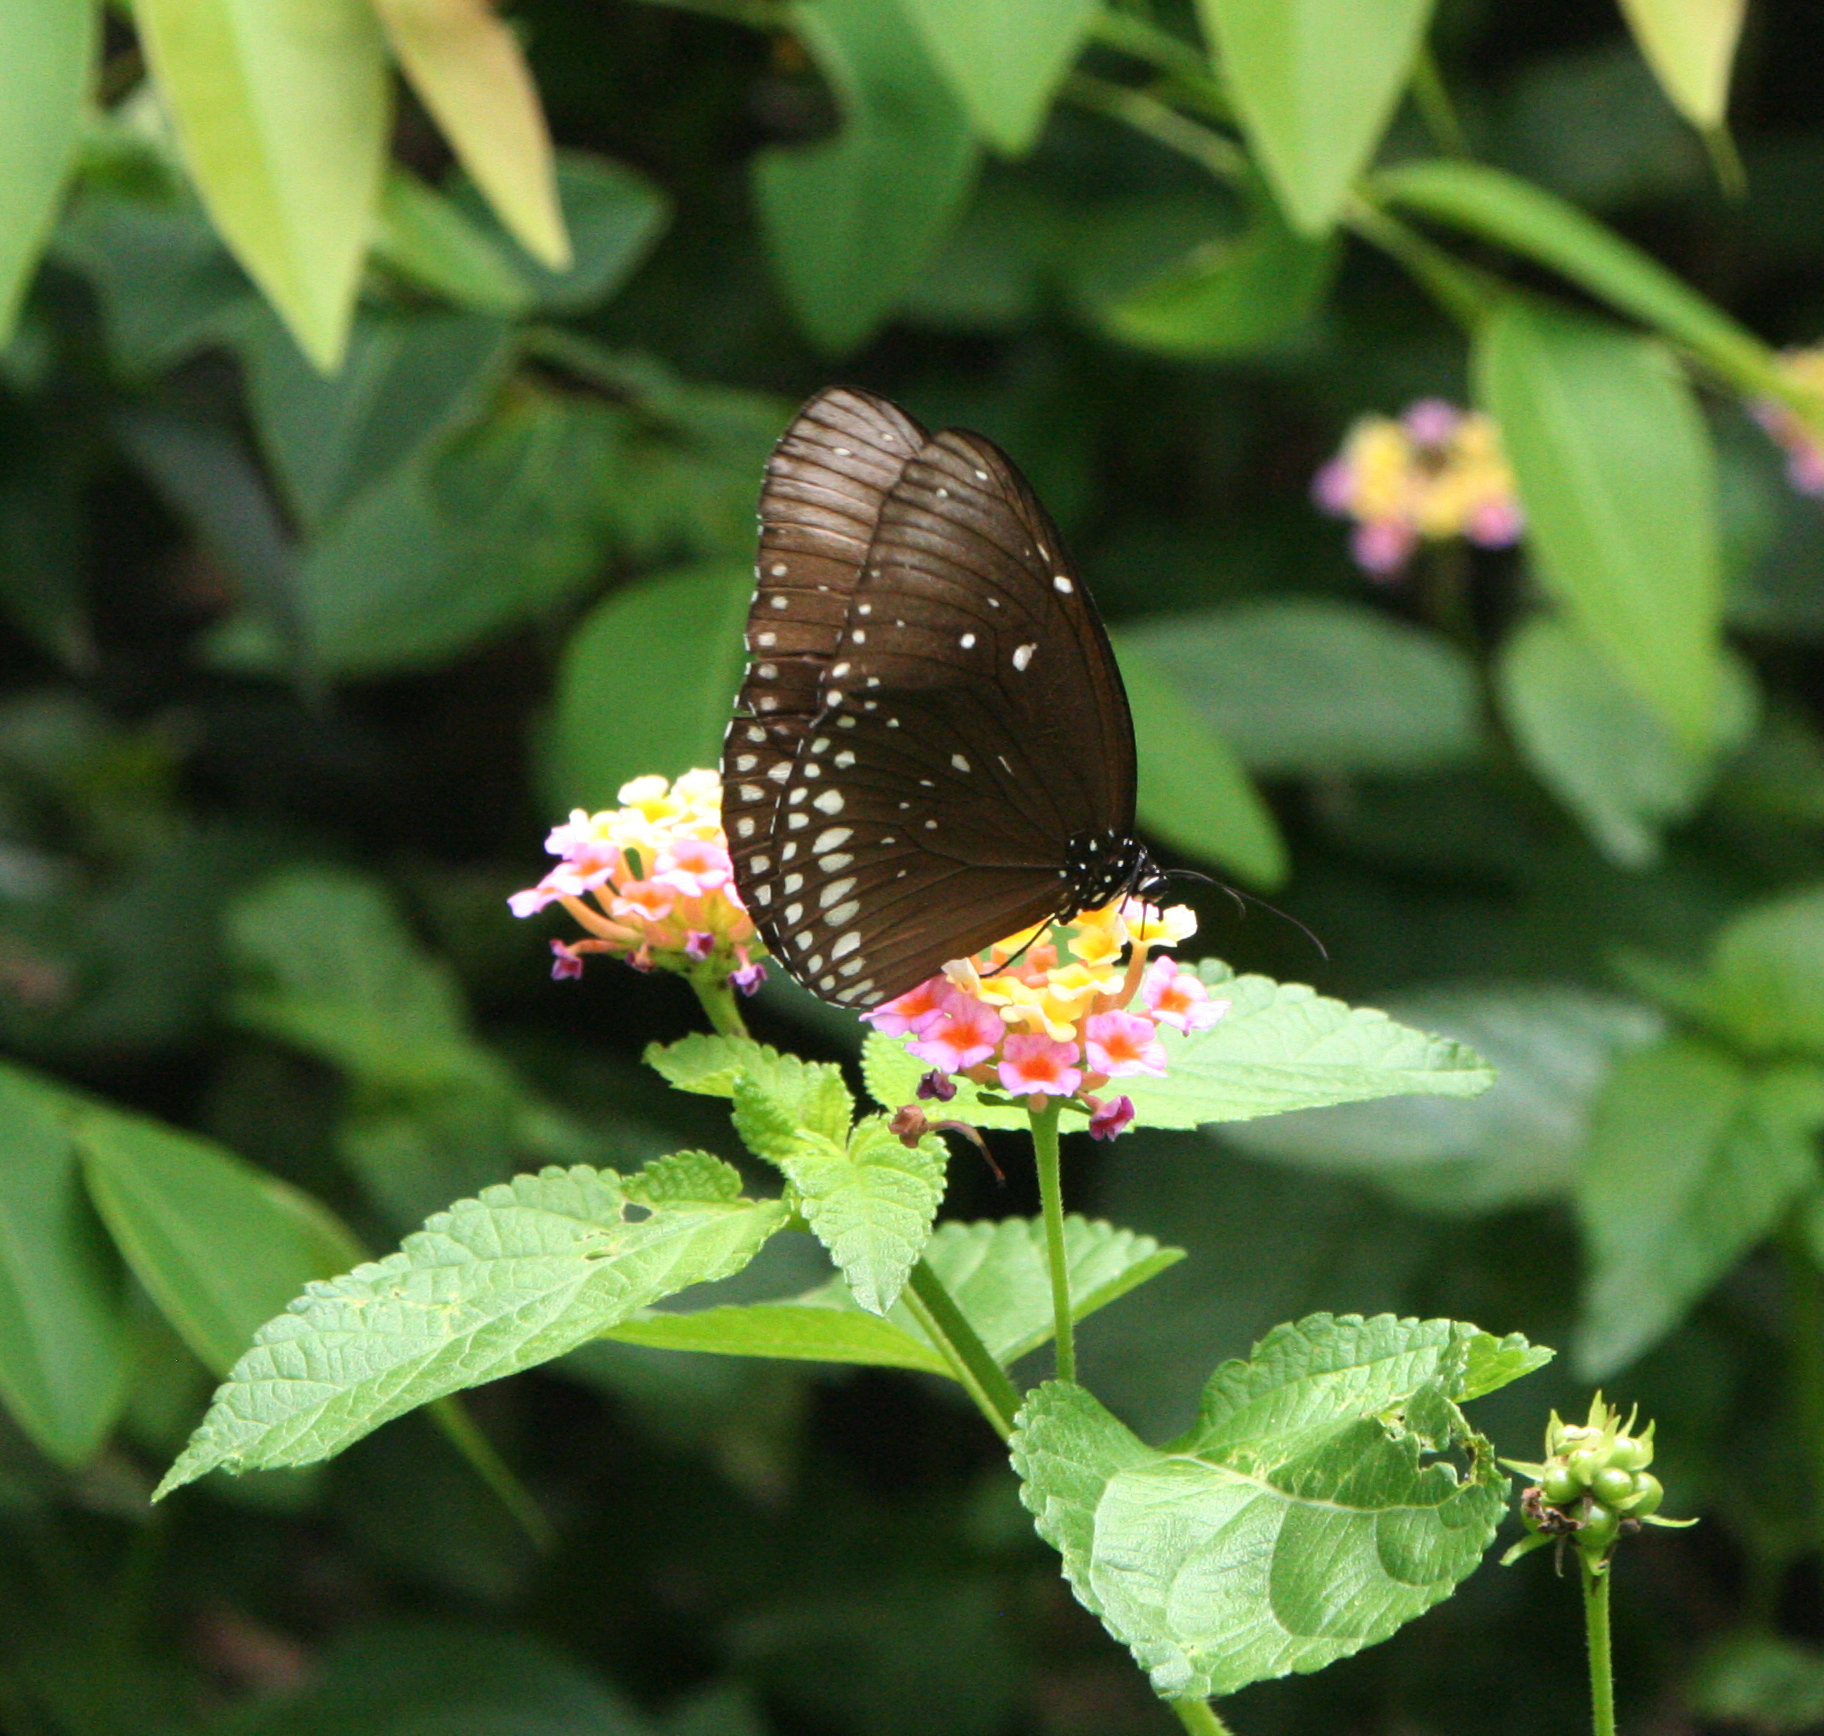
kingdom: Animalia
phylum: Arthropoda
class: Insecta
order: Lepidoptera
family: Nymphalidae
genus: Euploea
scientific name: Euploea core
